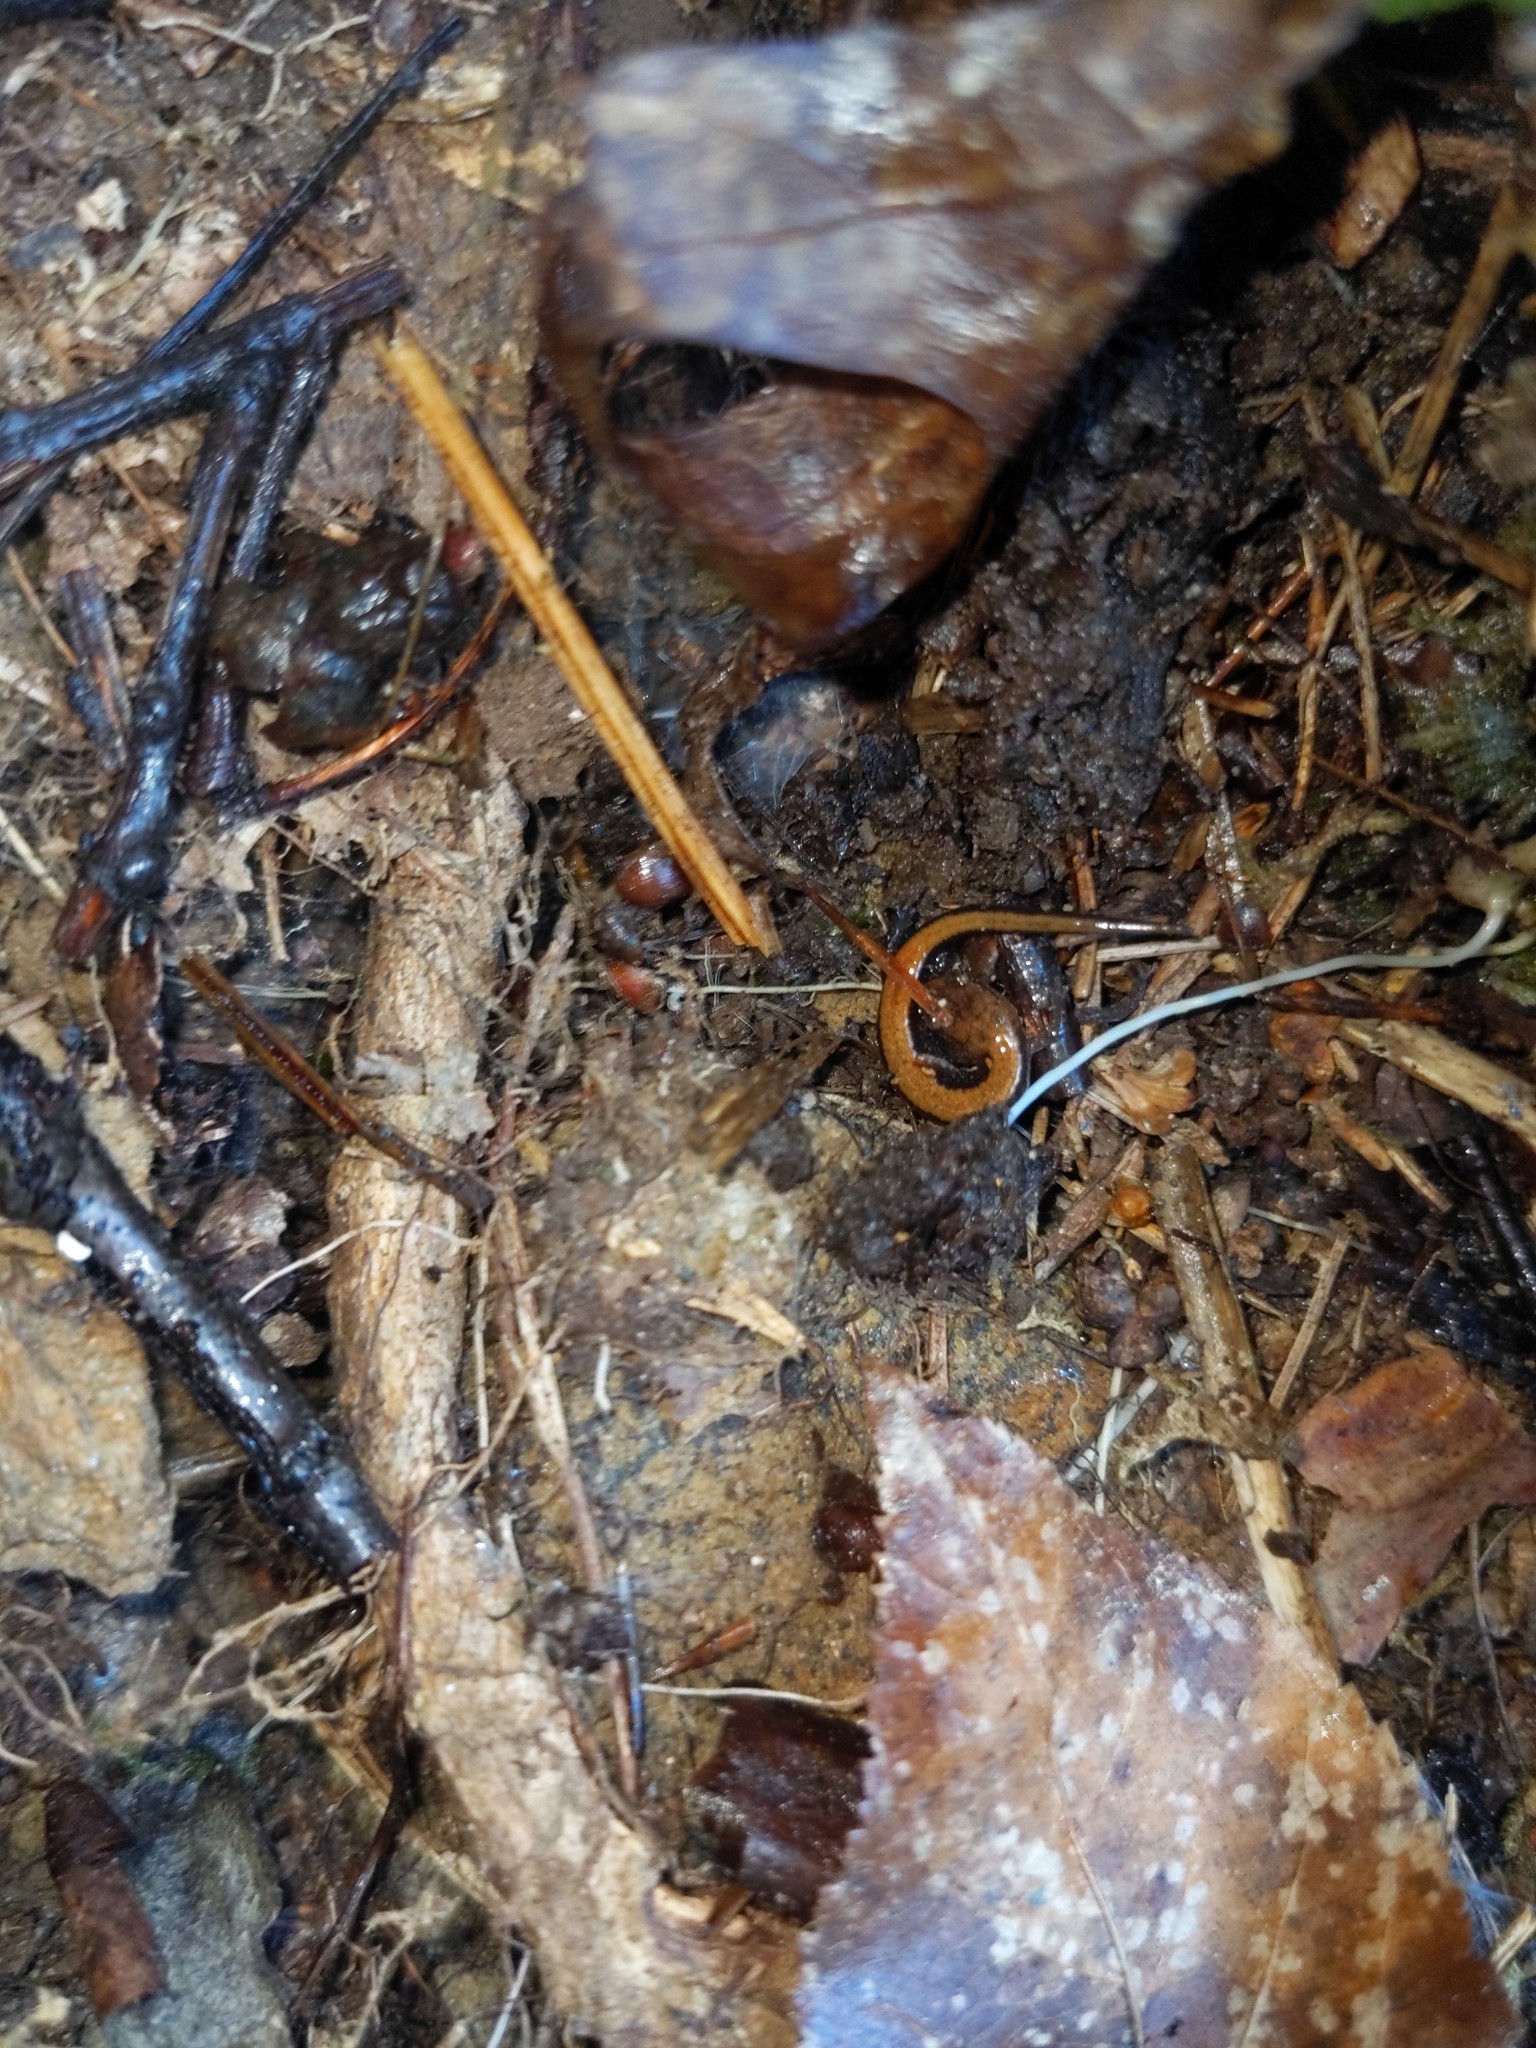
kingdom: Animalia
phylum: Chordata
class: Amphibia
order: Caudata
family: Plethodontidae
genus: Plethodon
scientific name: Plethodon cinereus
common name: Redback salamander
